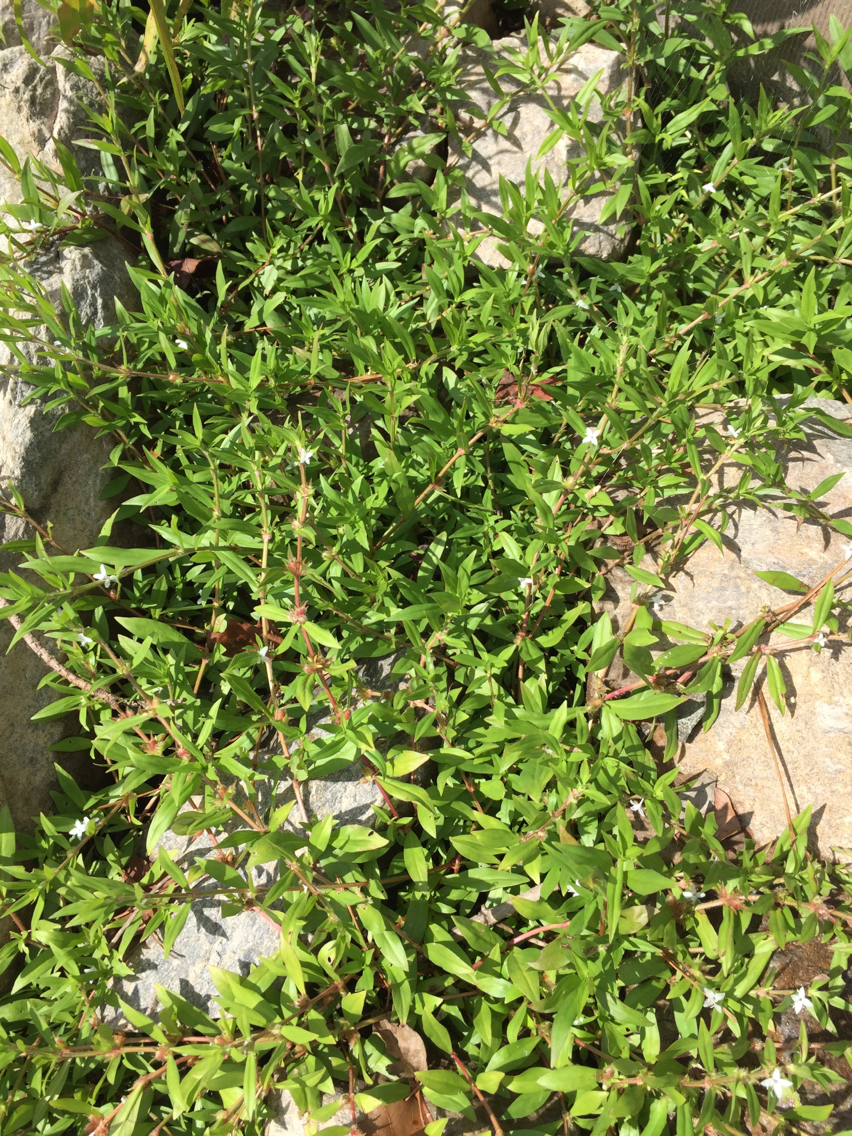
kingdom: Plantae
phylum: Tracheophyta
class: Magnoliopsida
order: Gentianales
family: Rubiaceae
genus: Diodia
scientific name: Diodia virginiana
